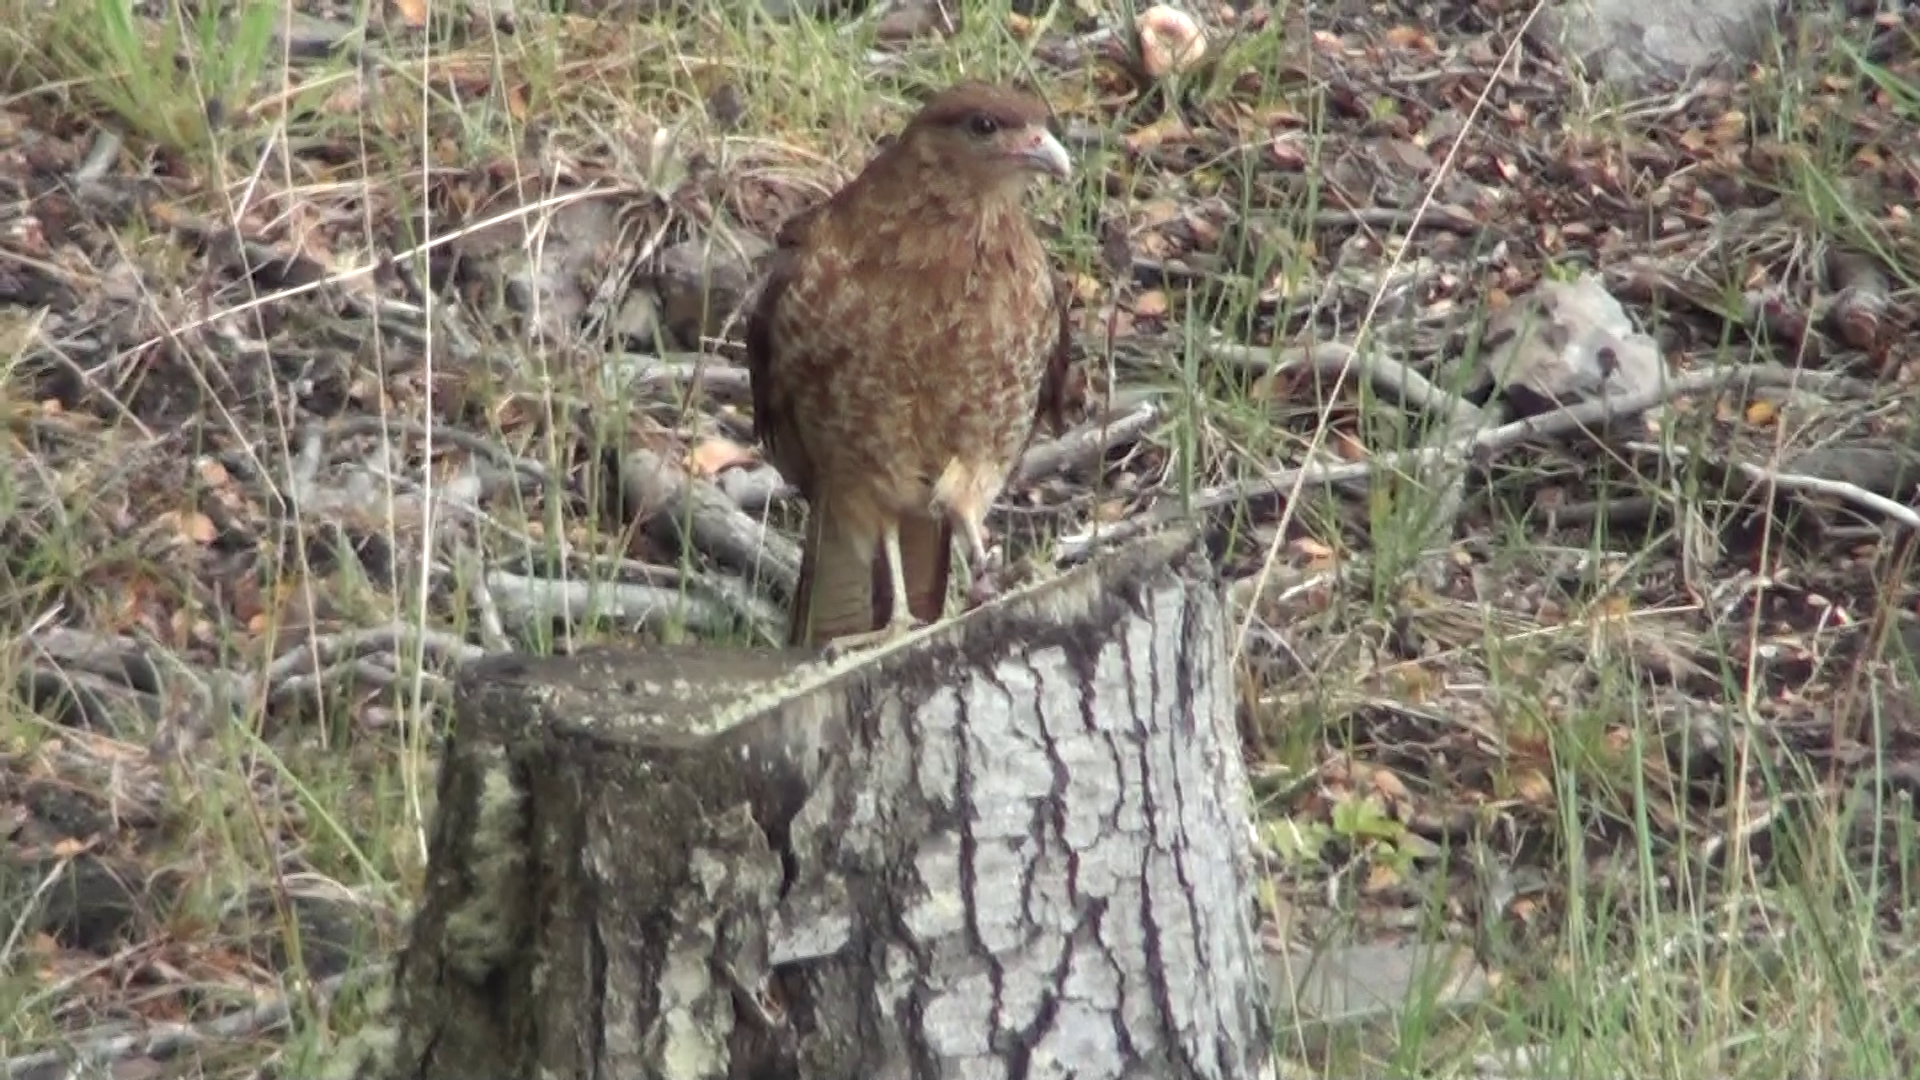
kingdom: Animalia
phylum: Chordata
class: Aves
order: Falconiformes
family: Falconidae
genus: Daptrius
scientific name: Daptrius
